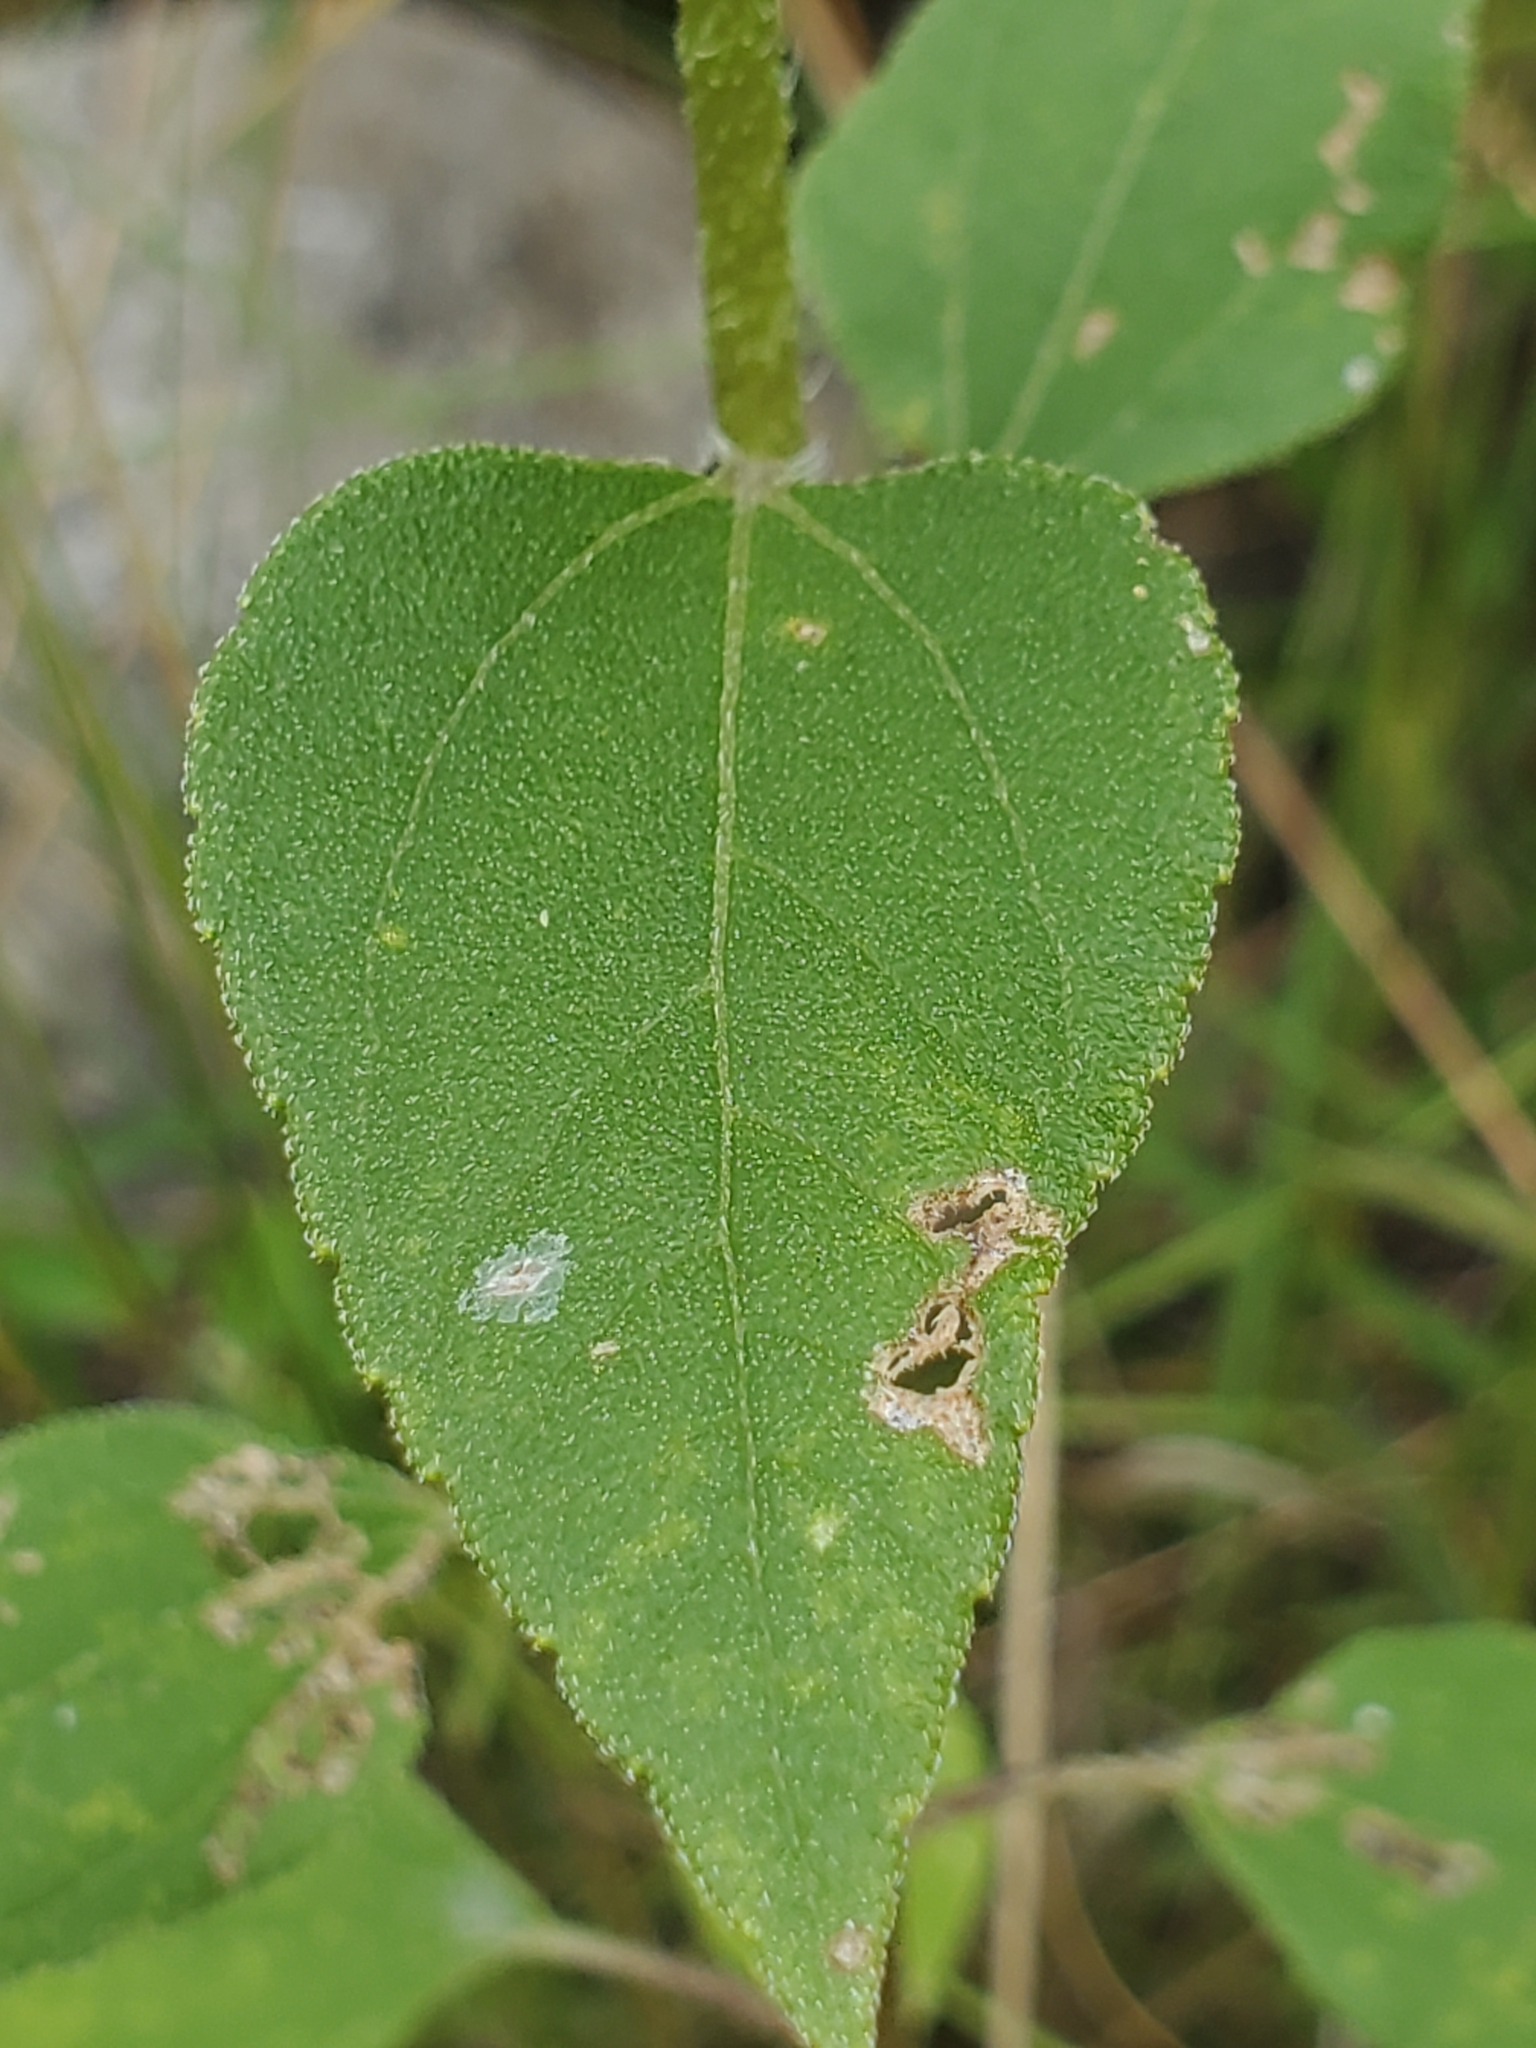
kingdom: Plantae
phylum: Tracheophyta
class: Magnoliopsida
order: Asterales
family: Asteraceae
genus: Helianthus
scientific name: Helianthus annuus
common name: Sunflower
